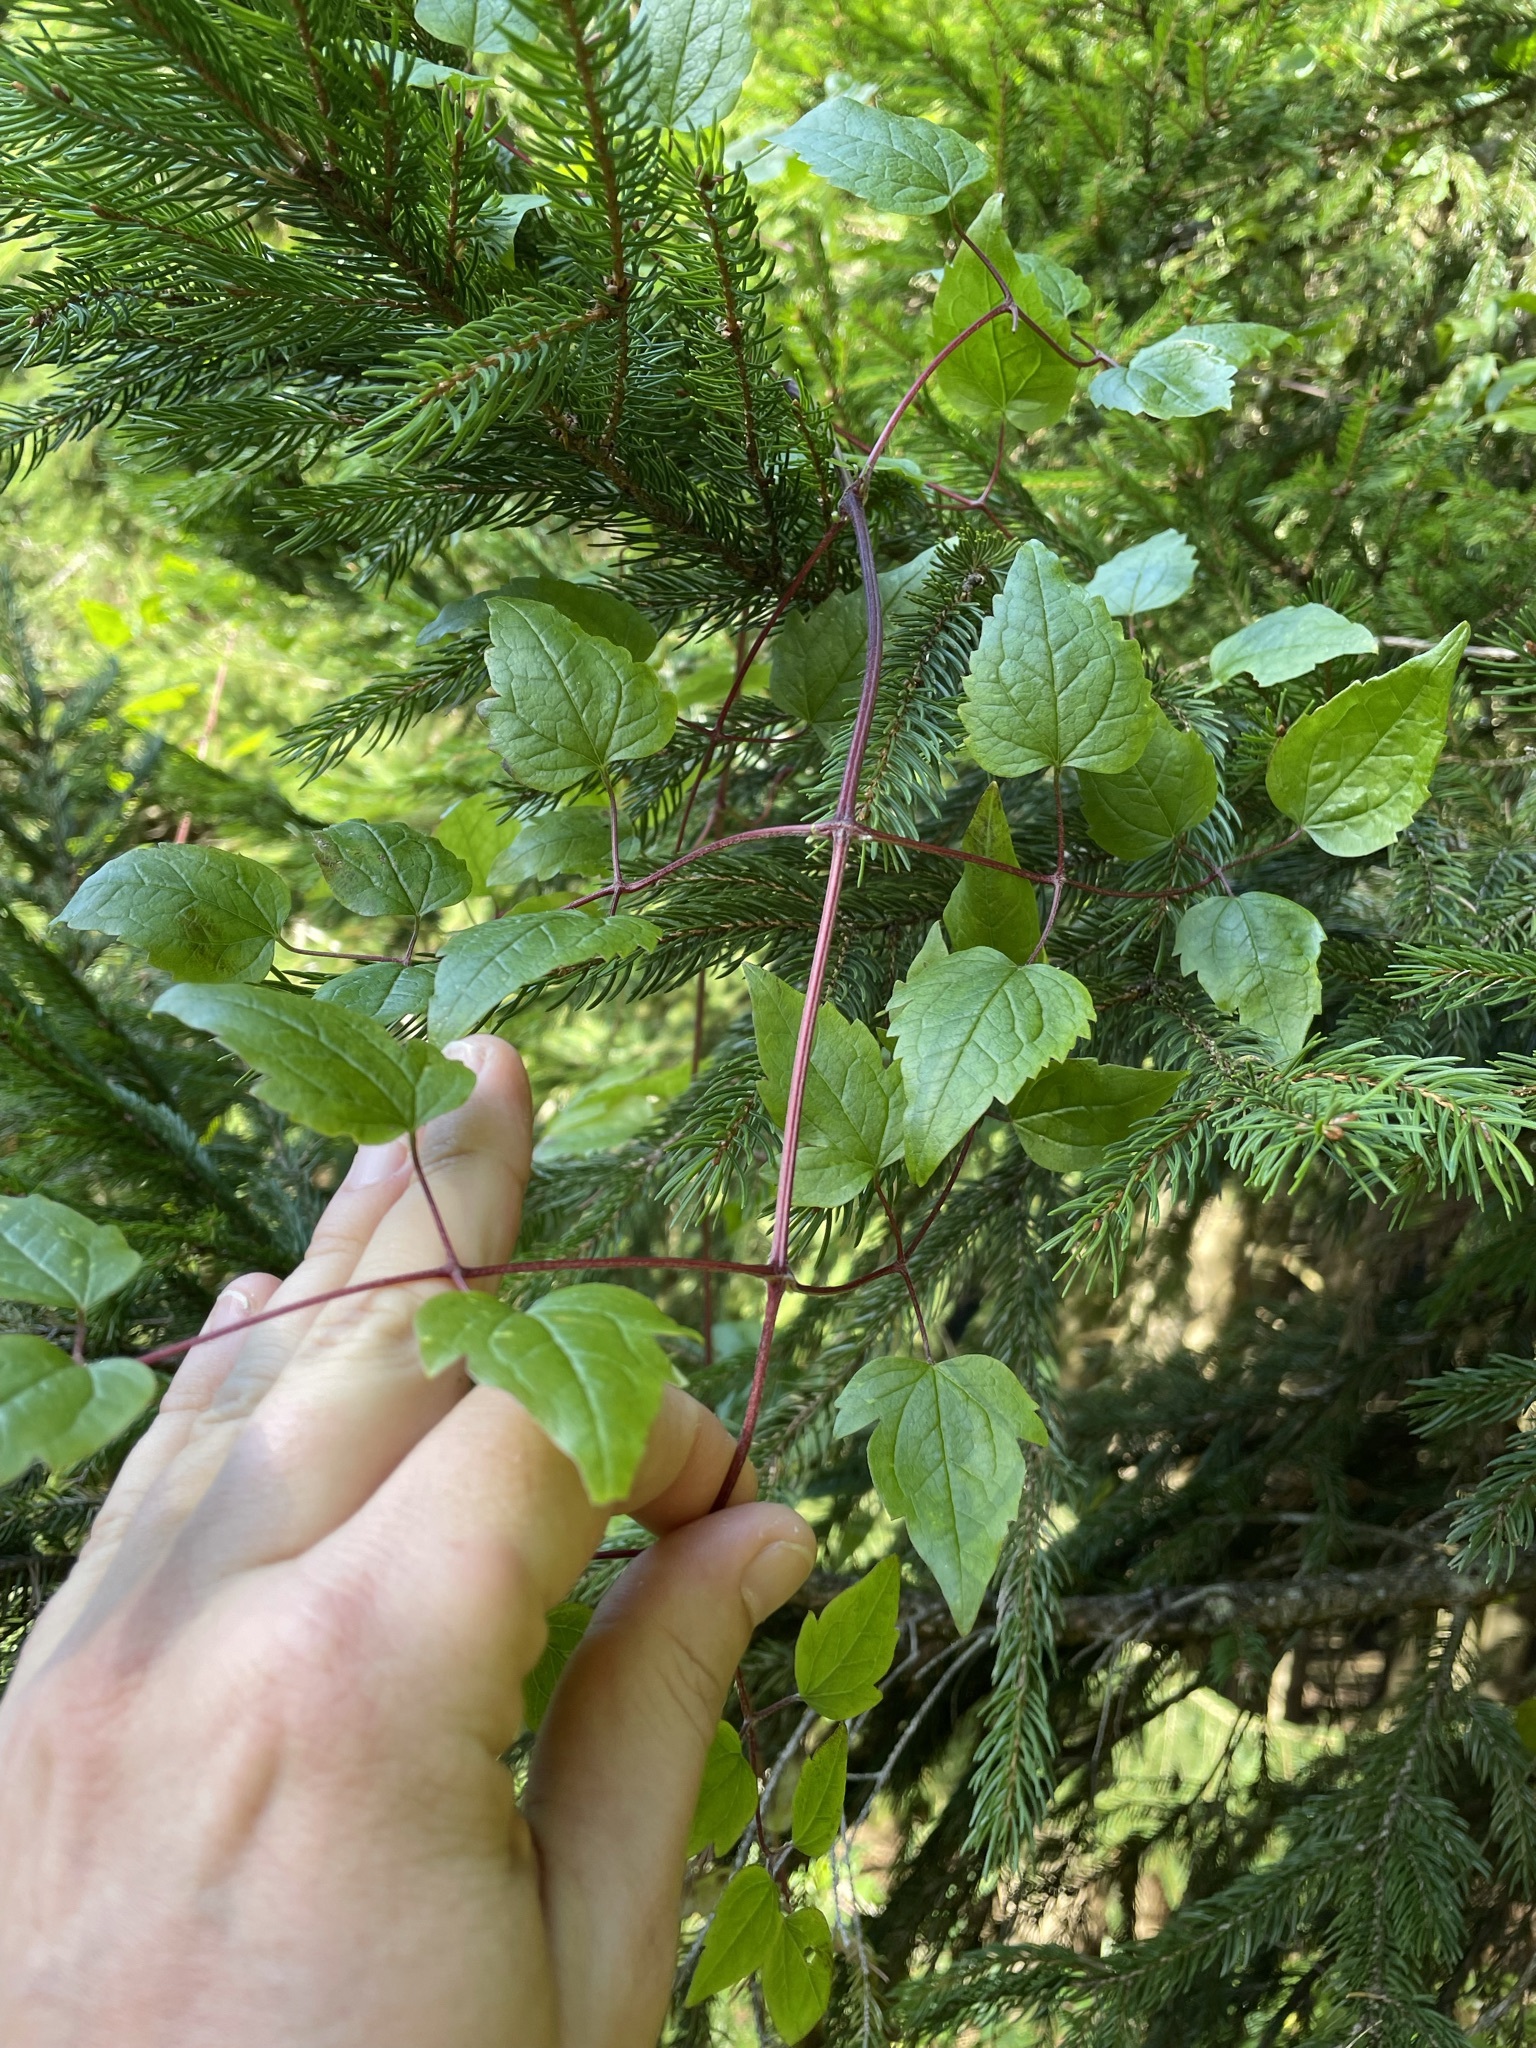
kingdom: Plantae
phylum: Tracheophyta
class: Magnoliopsida
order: Ranunculales
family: Ranunculaceae
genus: Clematis
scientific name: Clematis vitalba
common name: Evergreen clematis
